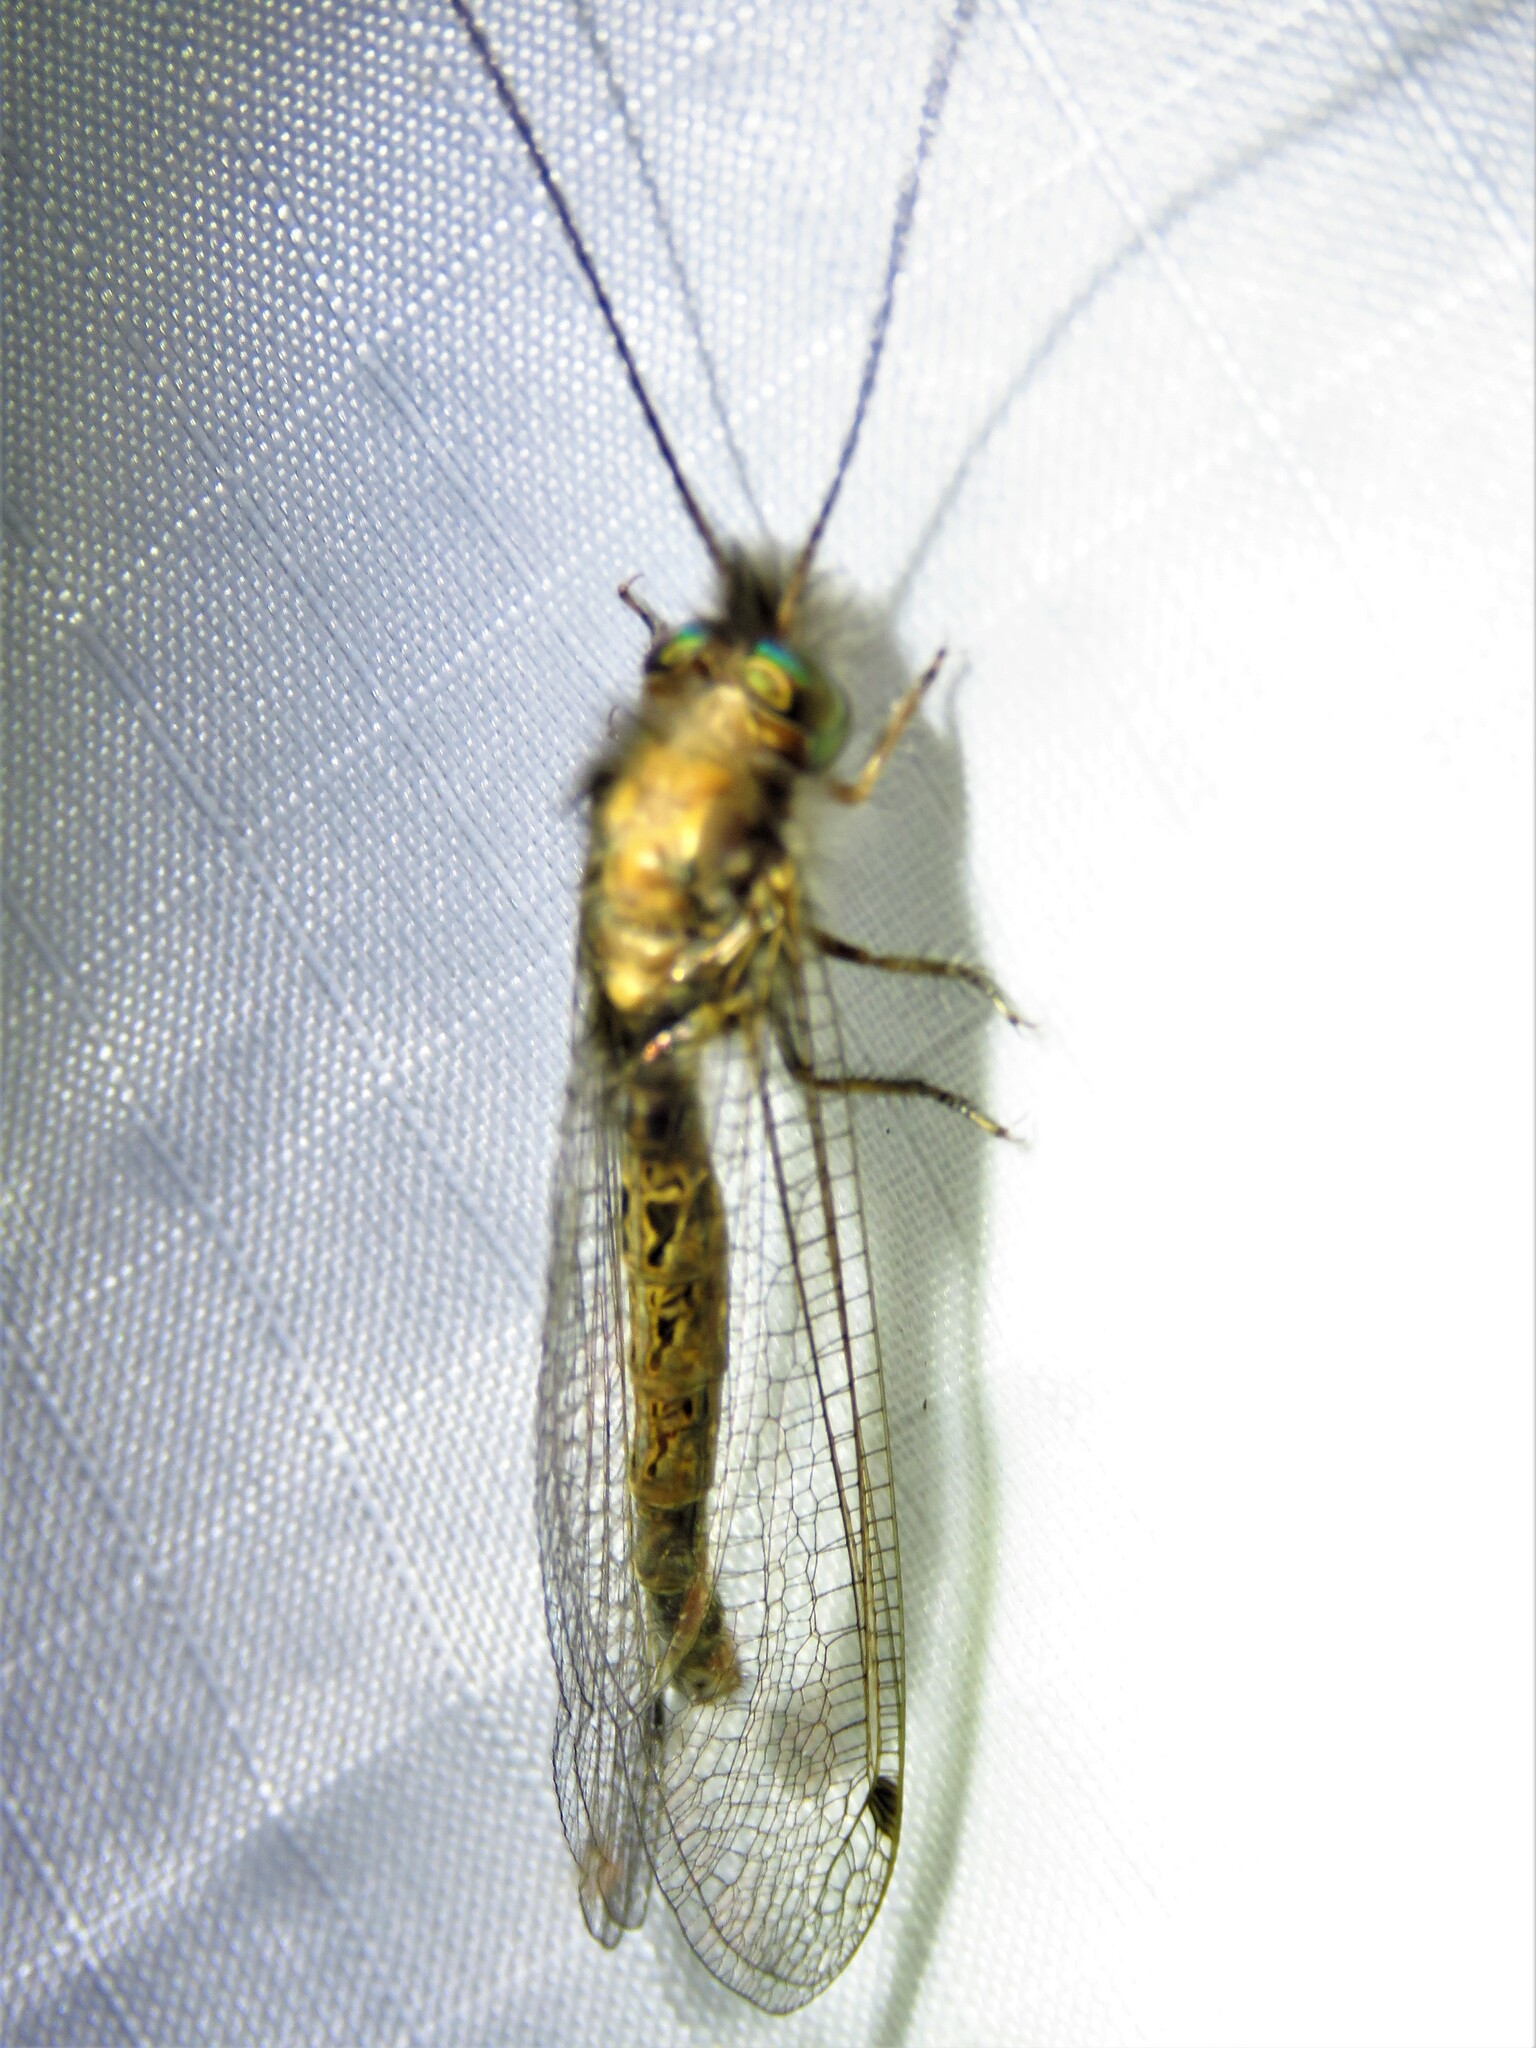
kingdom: Animalia
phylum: Arthropoda
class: Insecta
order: Neuroptera
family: Ascalaphidae
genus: Ululodes
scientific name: Ululodes macleayanus
